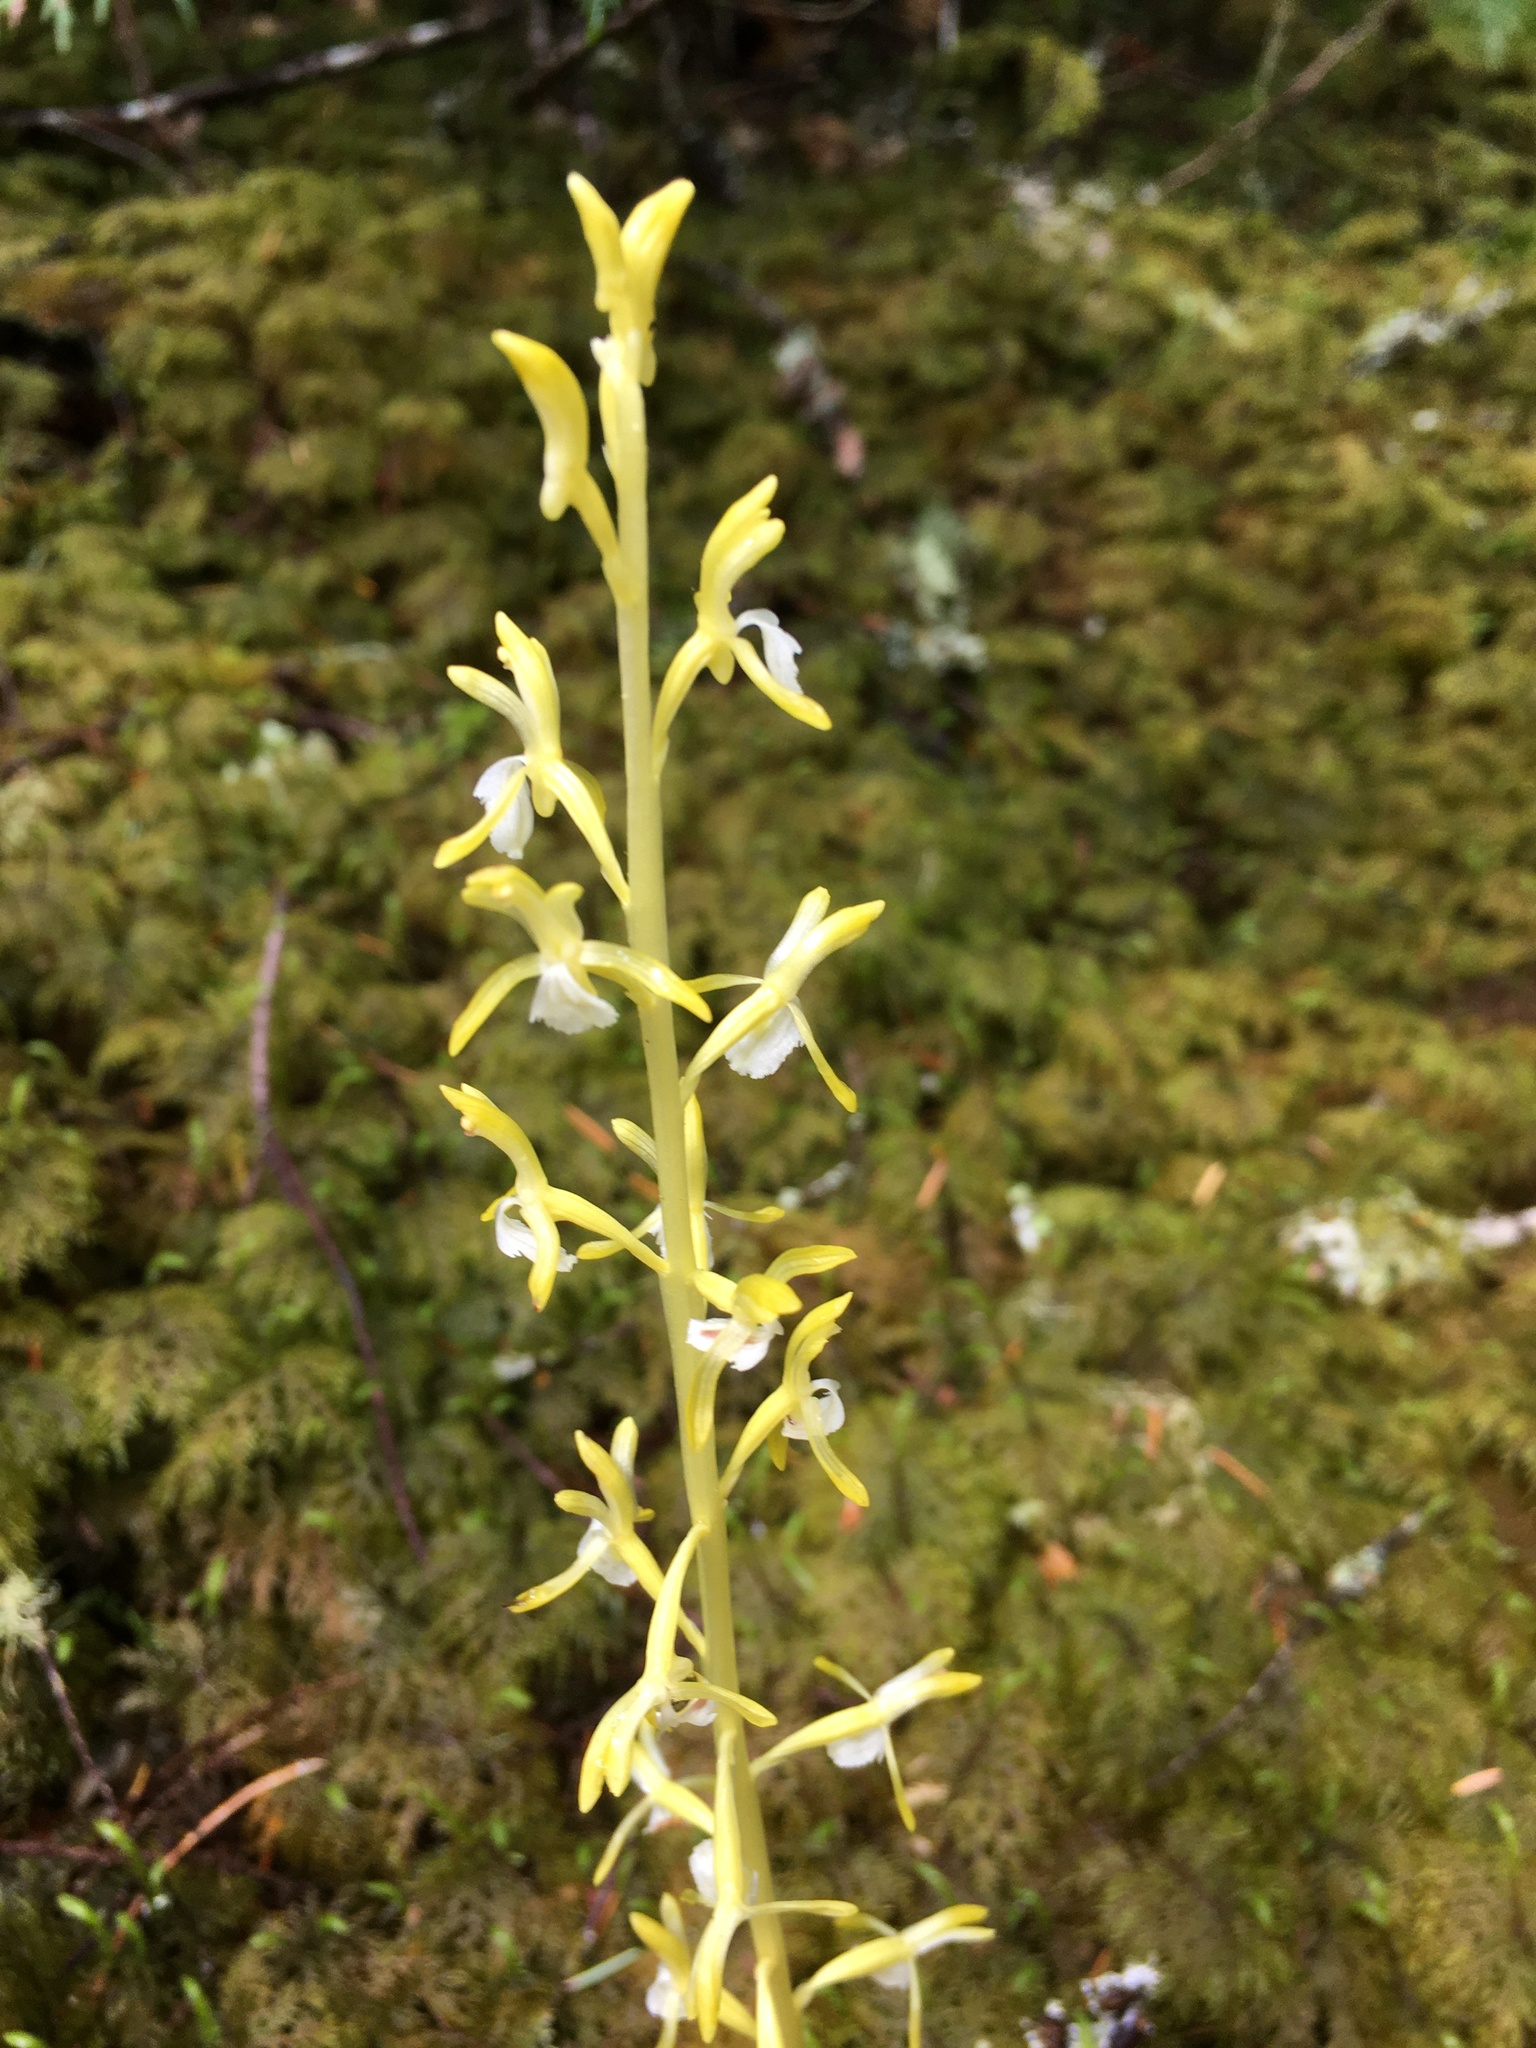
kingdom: Plantae
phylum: Tracheophyta
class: Liliopsida
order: Asparagales
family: Orchidaceae
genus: Corallorhiza
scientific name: Corallorhiza mertensiana
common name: Pacific coralroot
